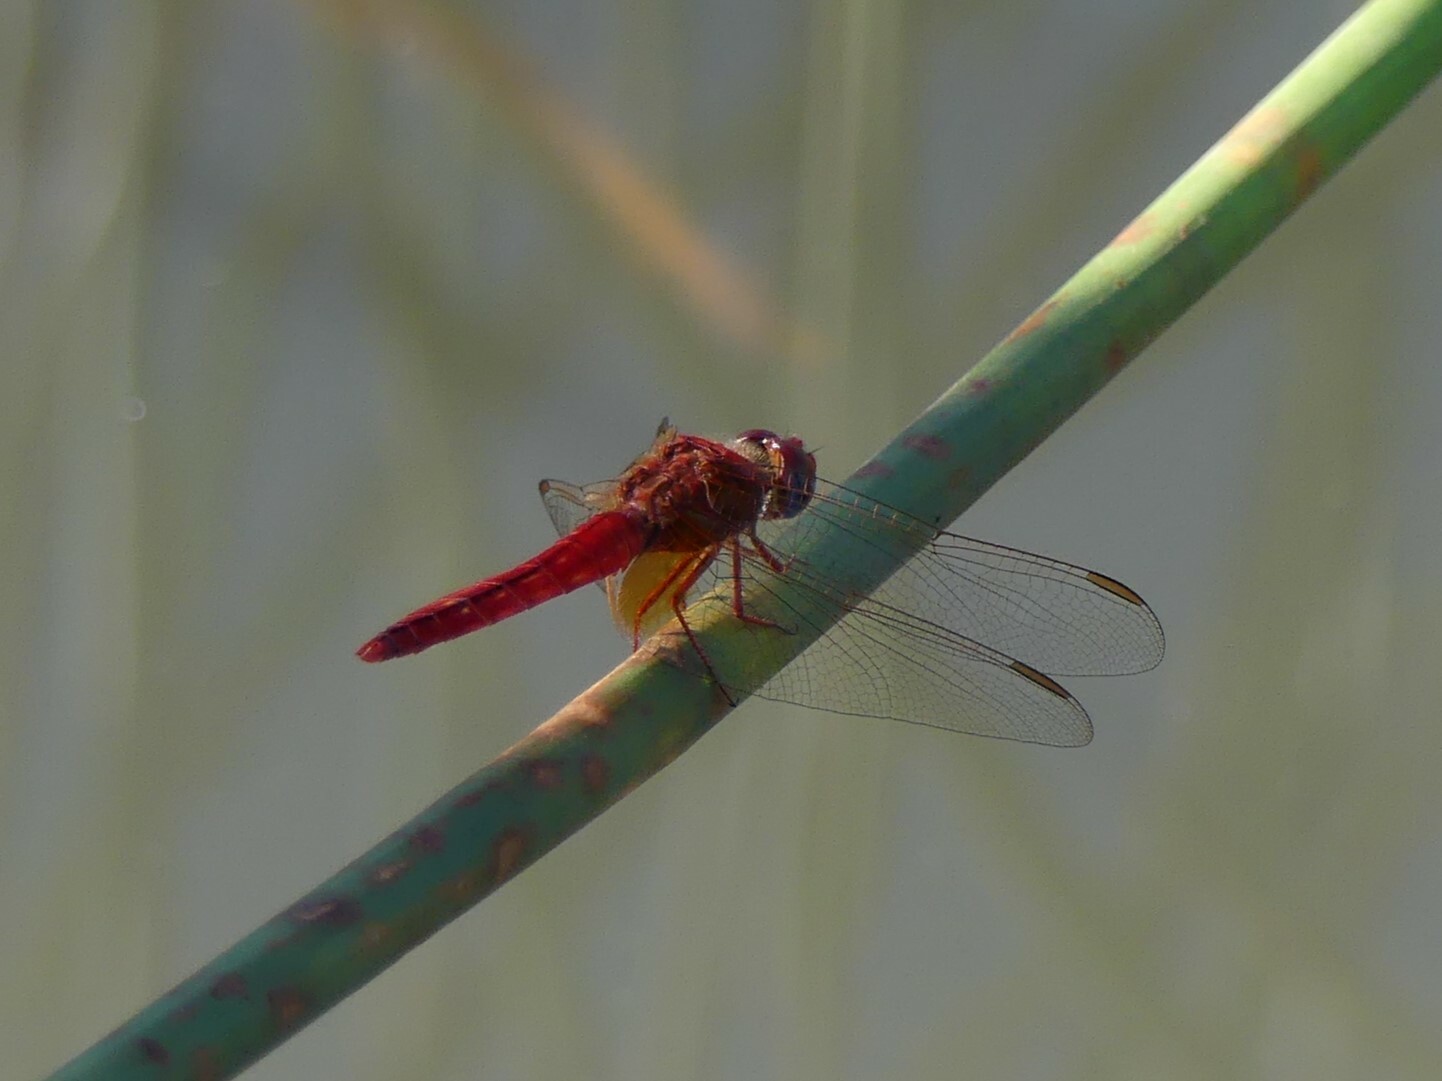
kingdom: Animalia
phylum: Arthropoda
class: Insecta
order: Odonata
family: Libellulidae
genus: Crocothemis
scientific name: Crocothemis erythraea
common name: Scarlet dragonfly
